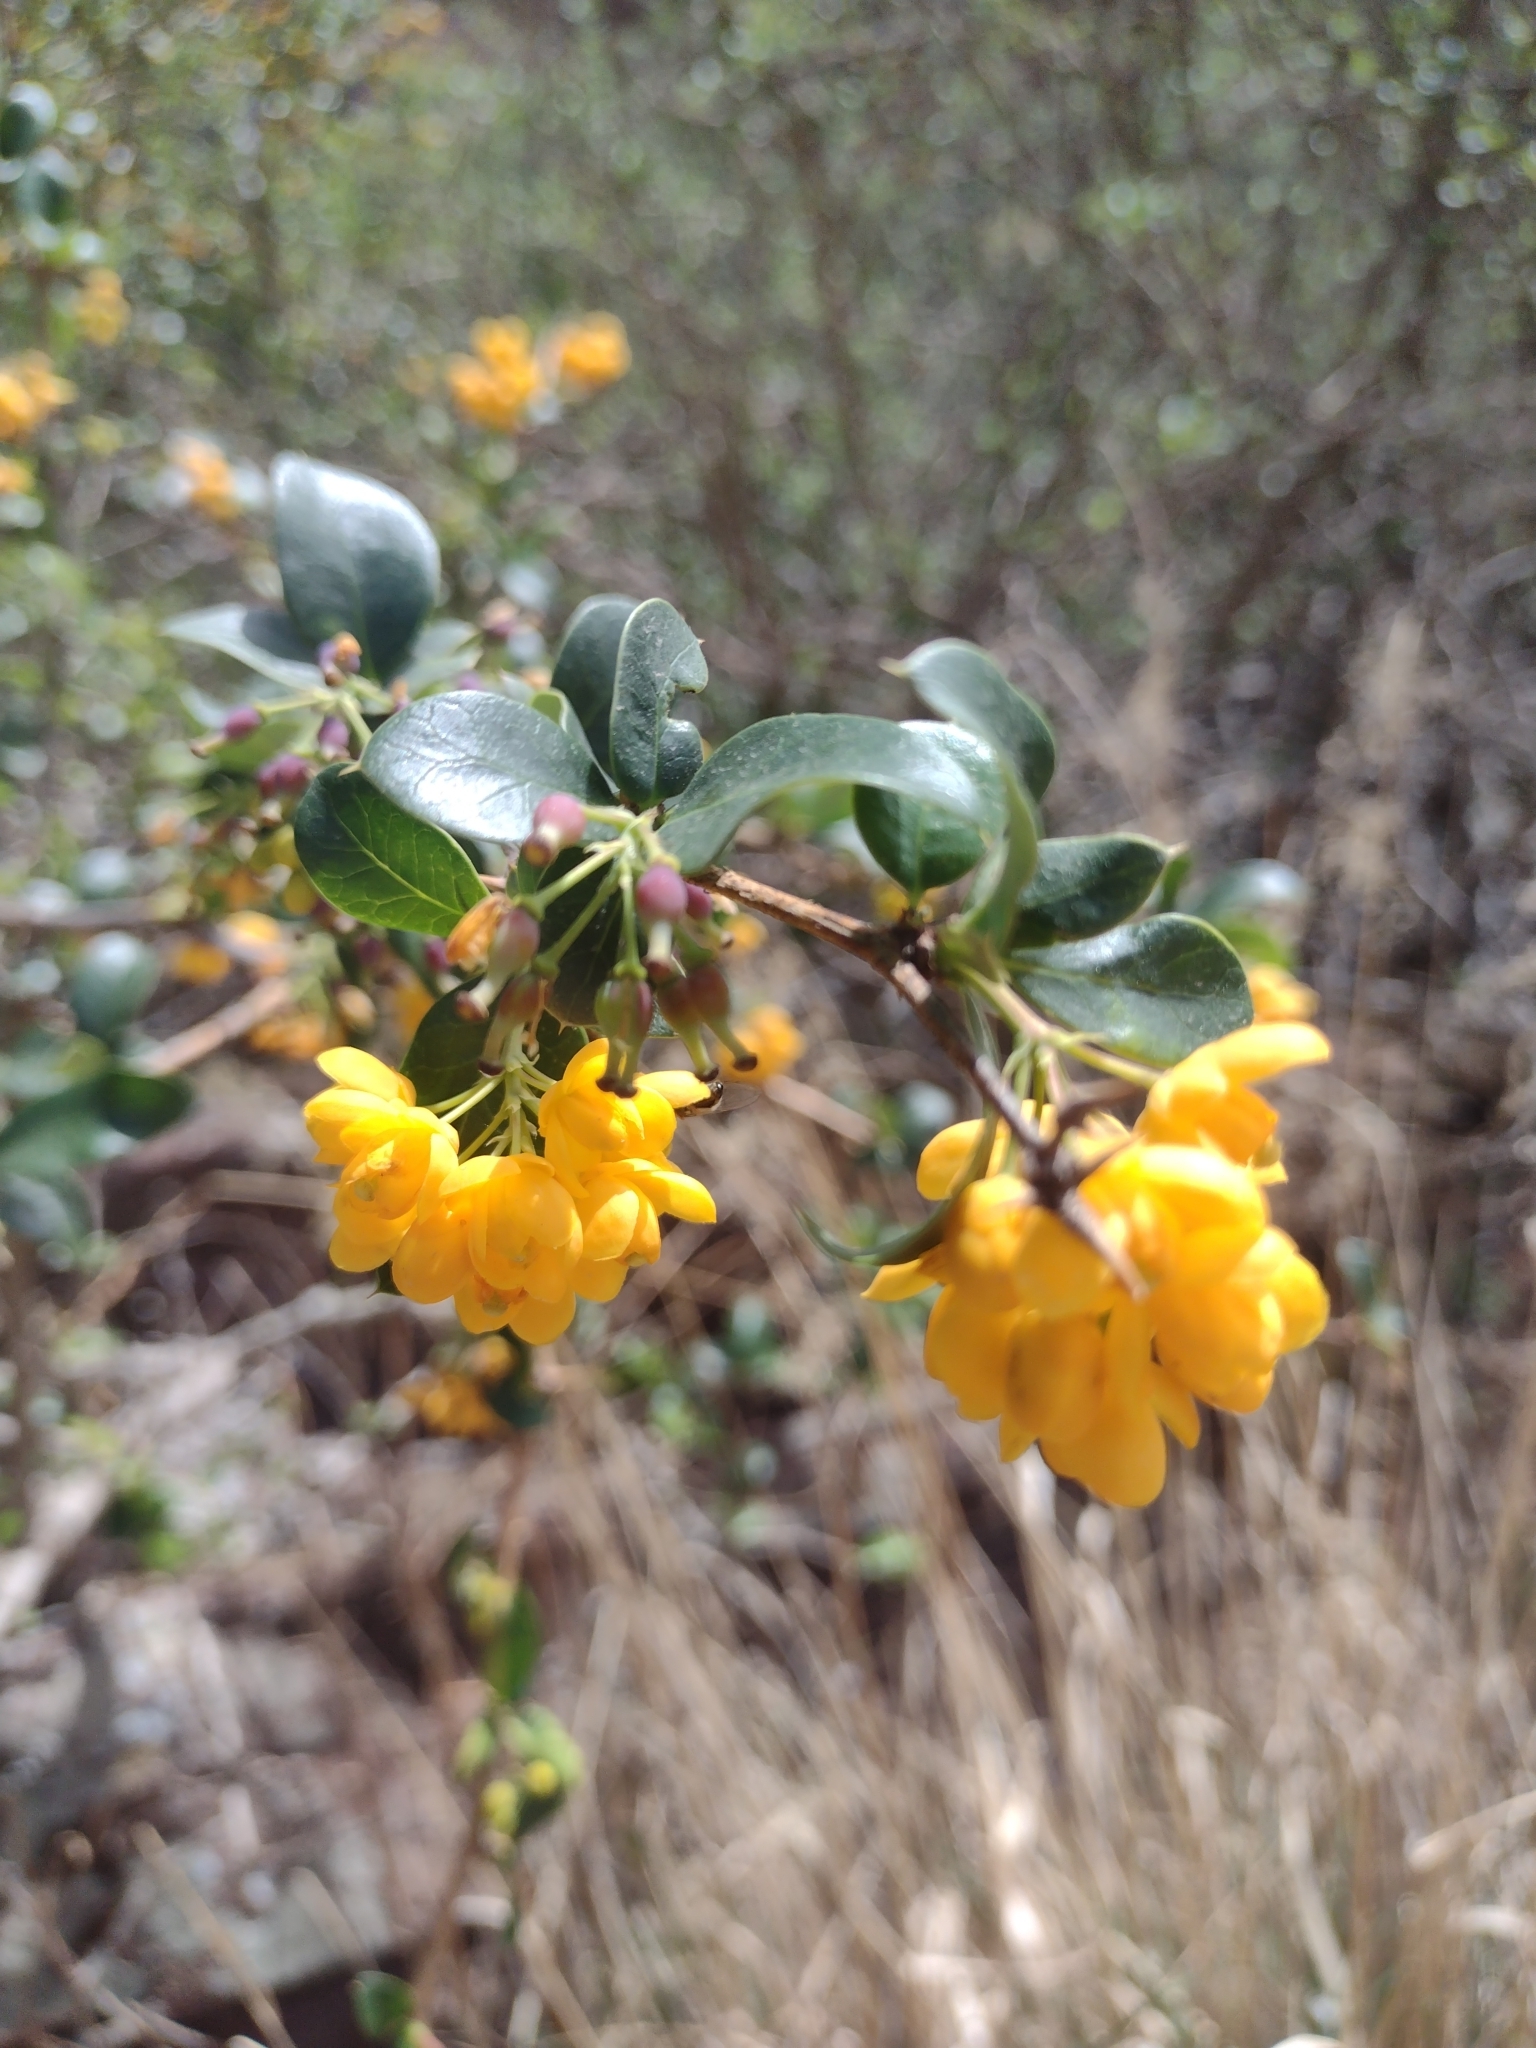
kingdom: Plantae
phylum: Tracheophyta
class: Magnoliopsida
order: Ranunculales
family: Berberidaceae
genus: Berberis
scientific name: Berberis andeana
